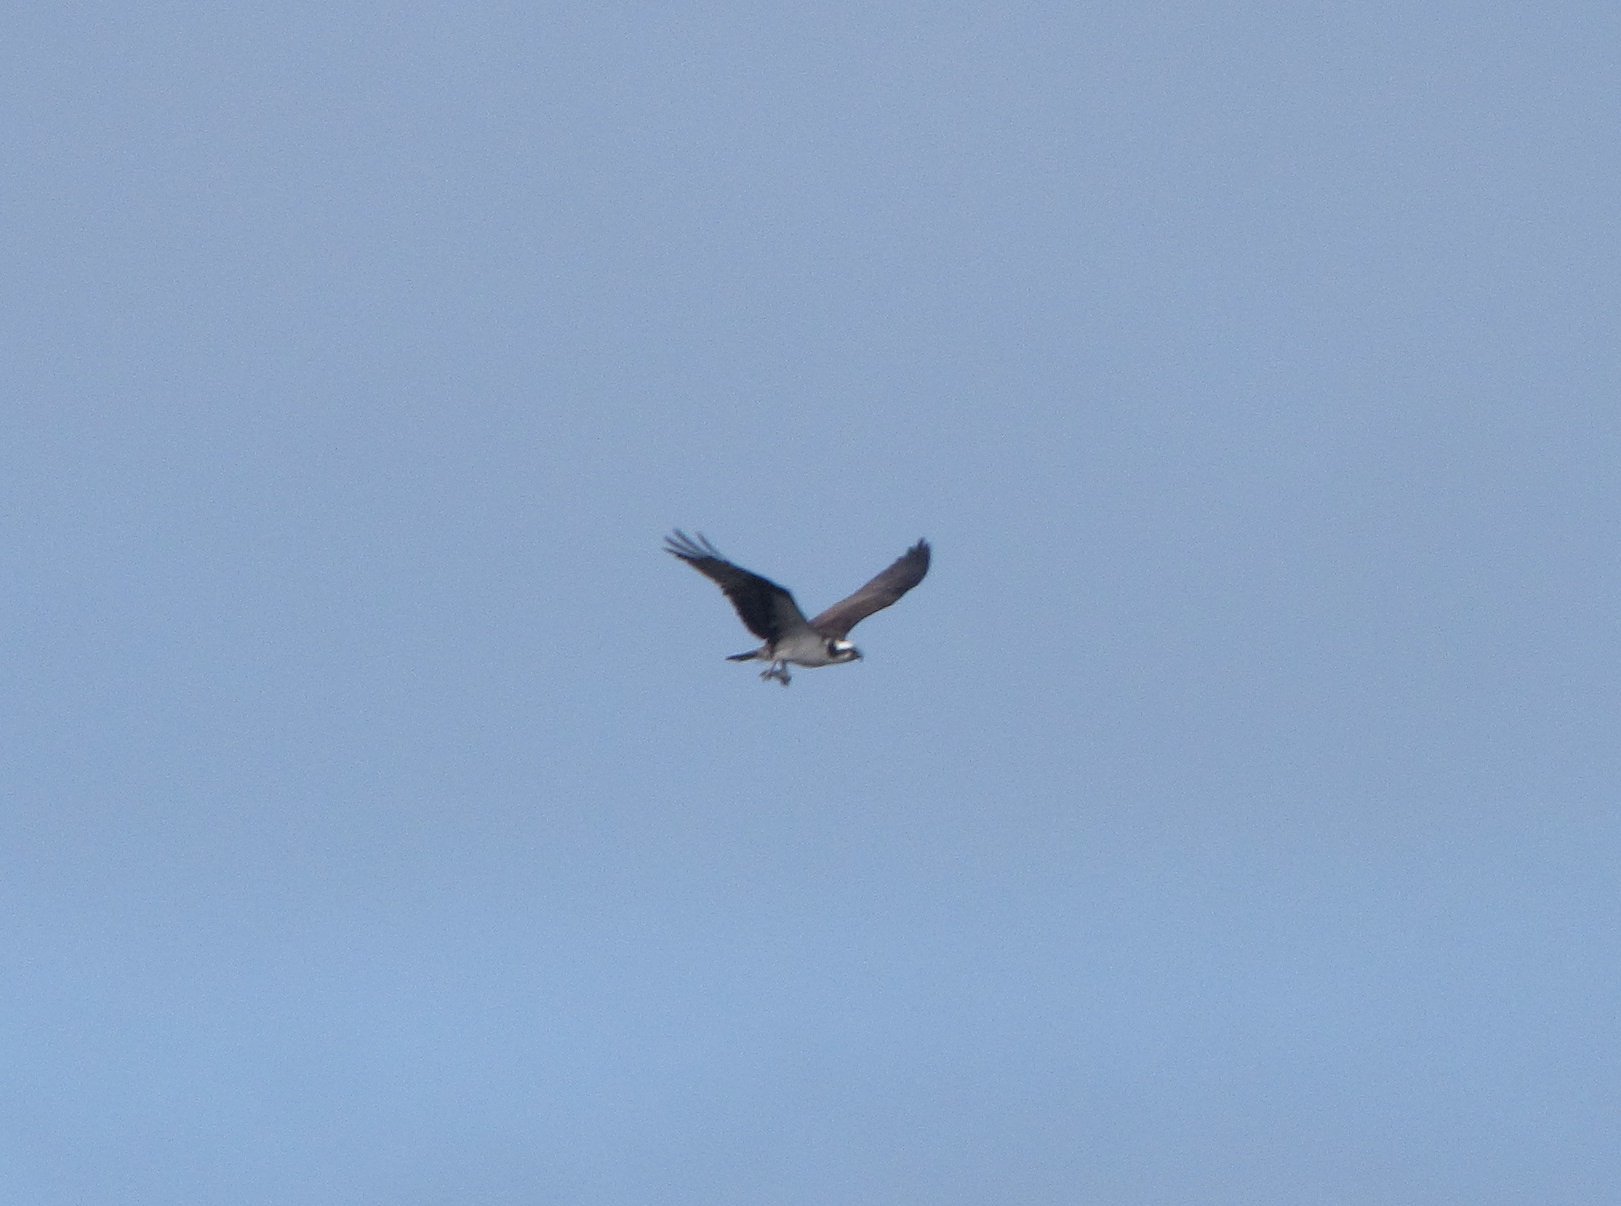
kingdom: Animalia
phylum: Chordata
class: Aves
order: Accipitriformes
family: Pandionidae
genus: Pandion
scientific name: Pandion haliaetus
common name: Osprey
